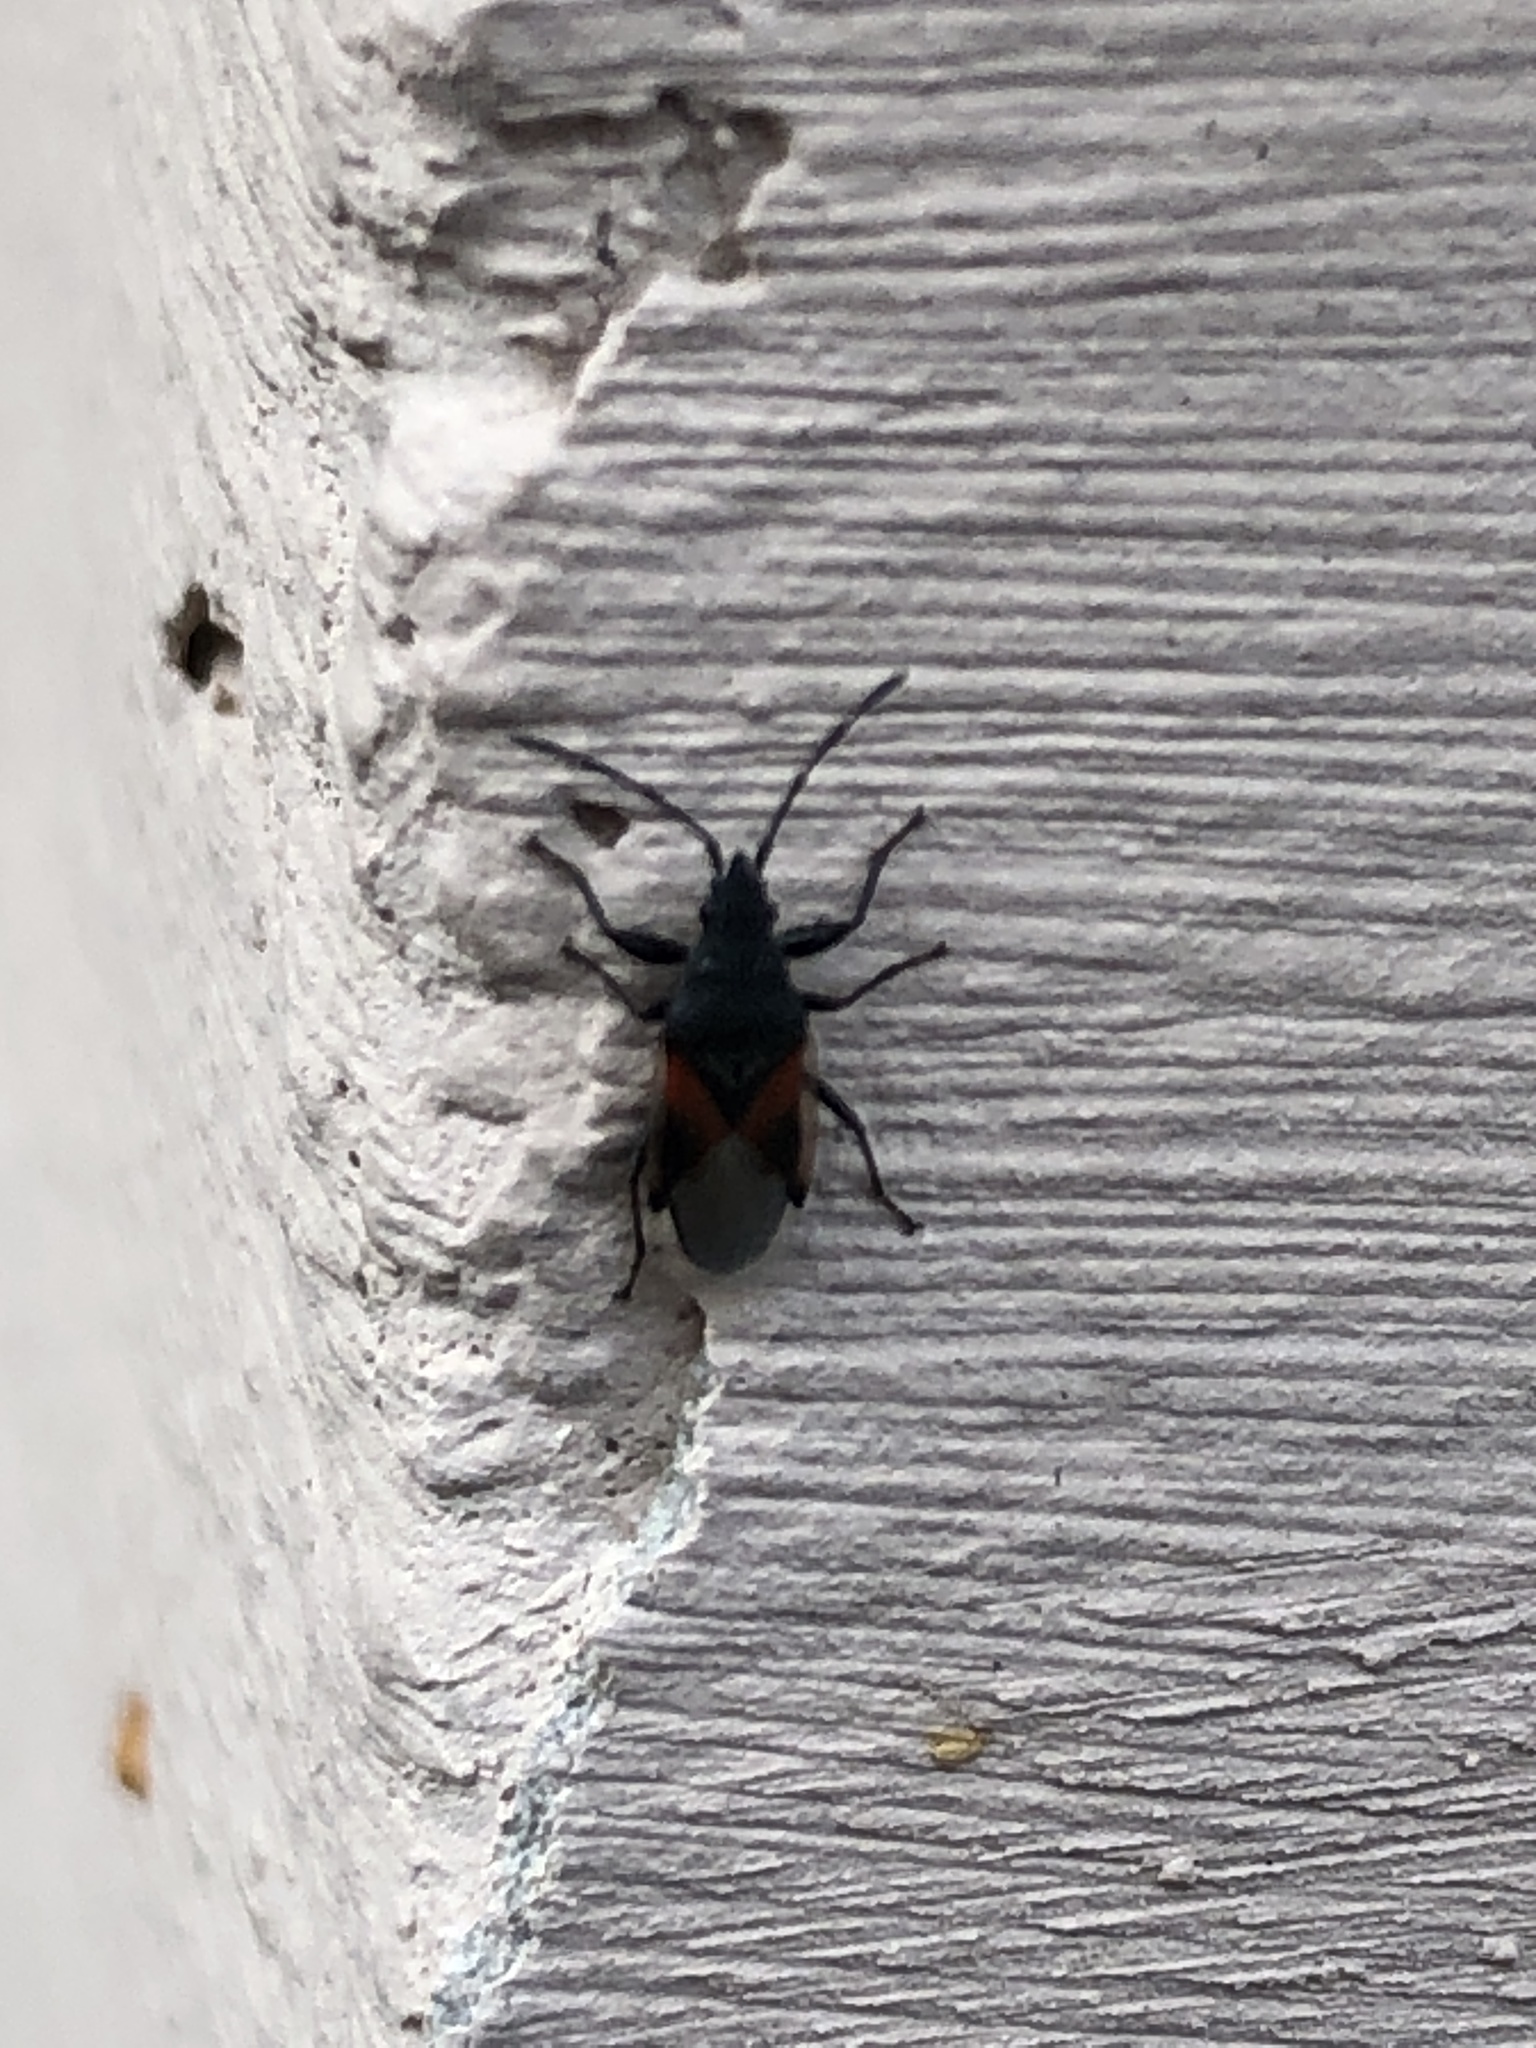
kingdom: Animalia
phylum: Arthropoda
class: Insecta
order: Hemiptera
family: Oxycarenidae
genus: Oxycarenus
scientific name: Oxycarenus lavaterae
